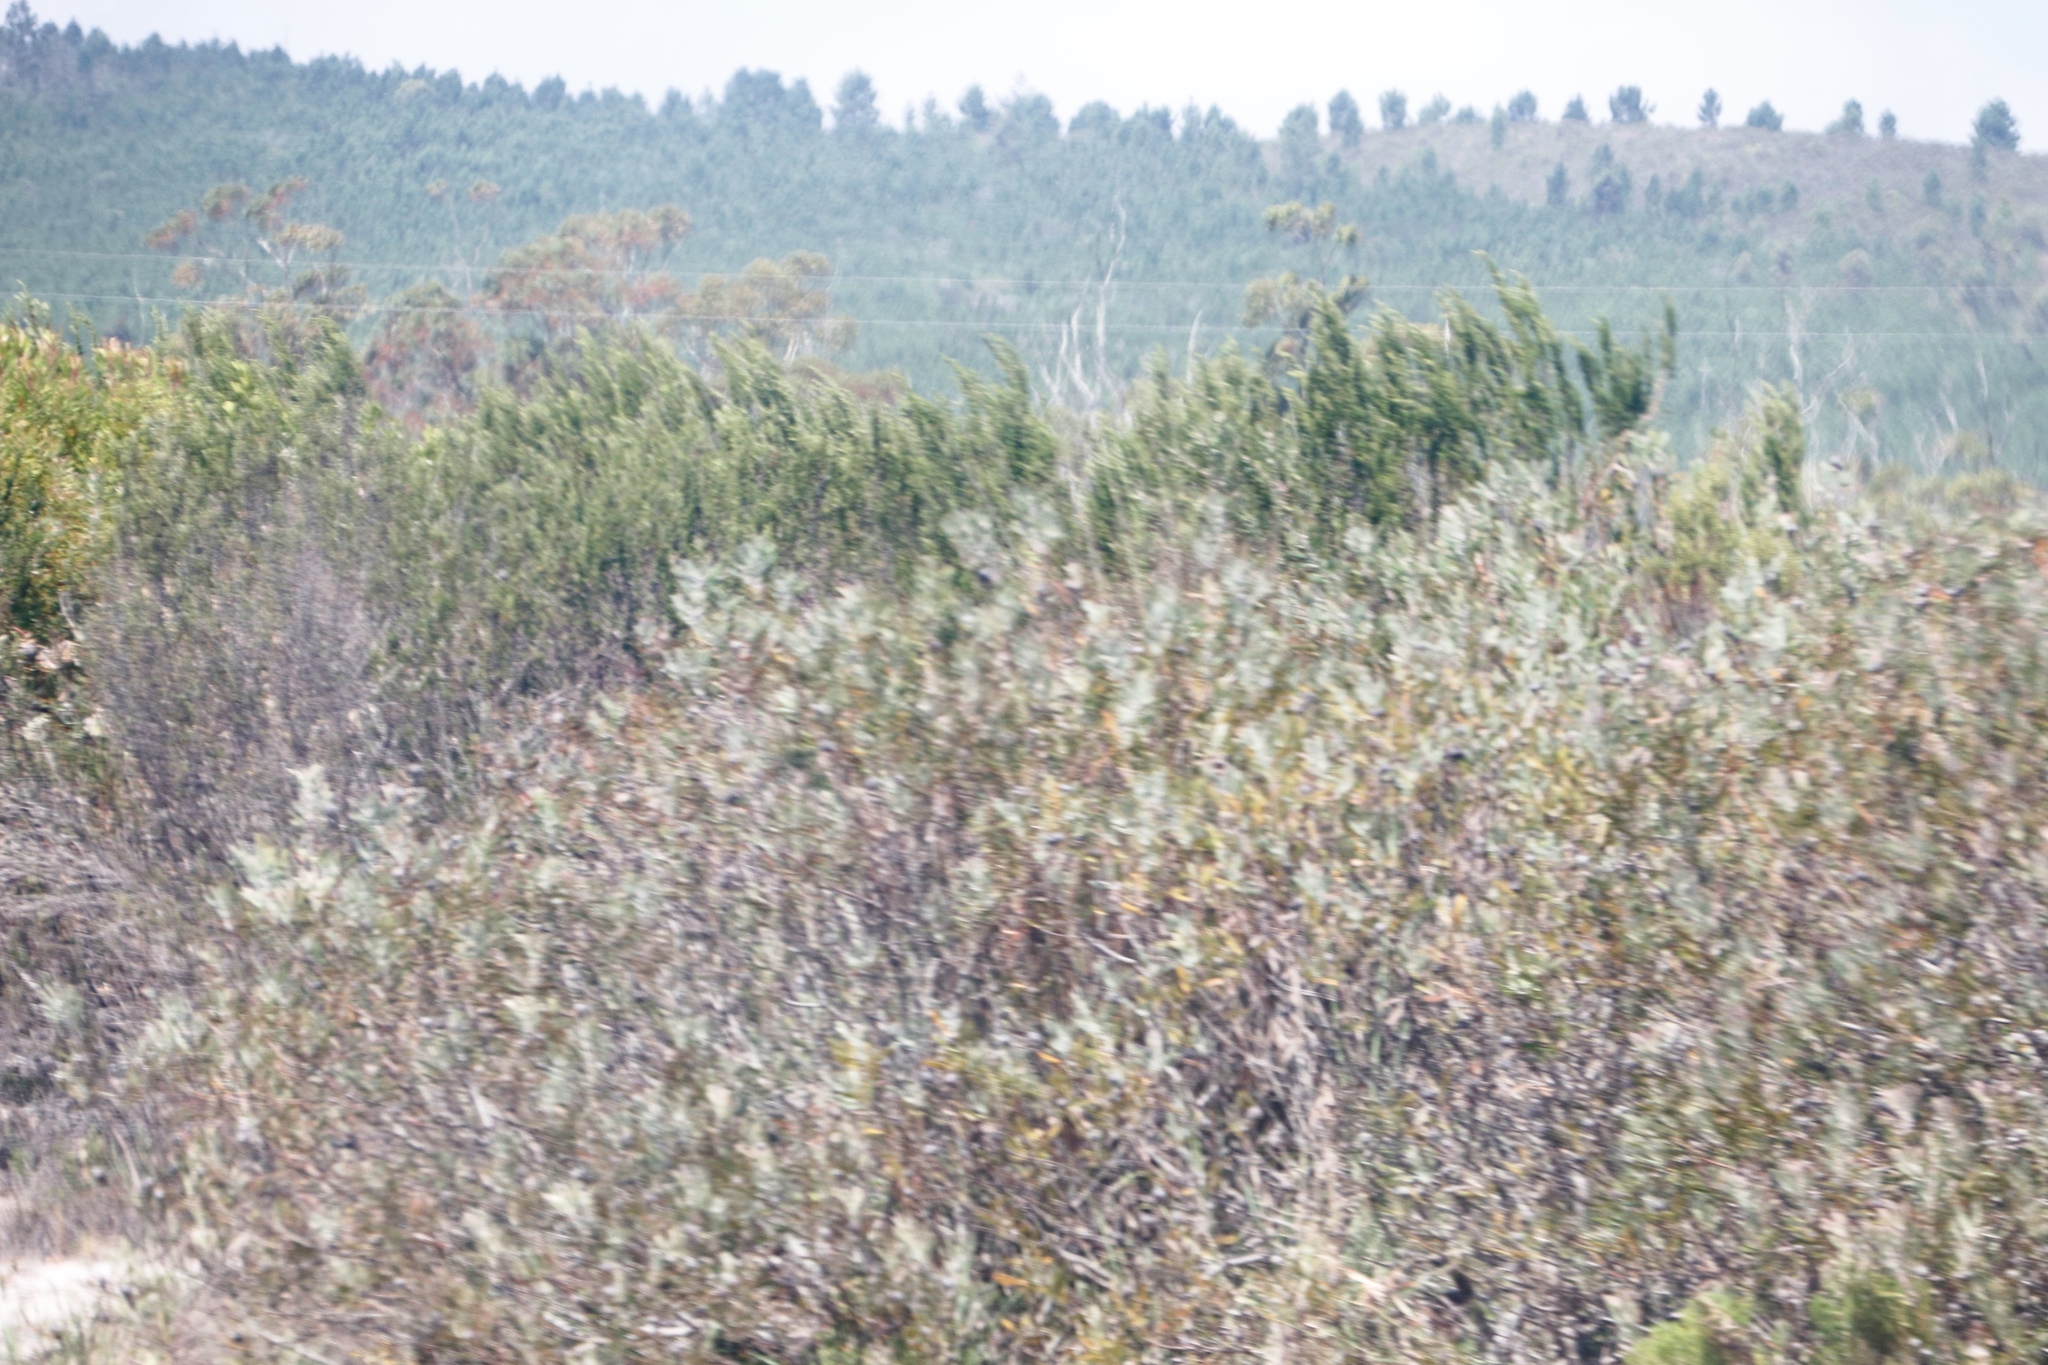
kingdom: Plantae
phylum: Tracheophyta
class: Magnoliopsida
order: Proteales
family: Proteaceae
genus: Leucospermum
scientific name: Leucospermum praecox
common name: Mossel bay pincushion
